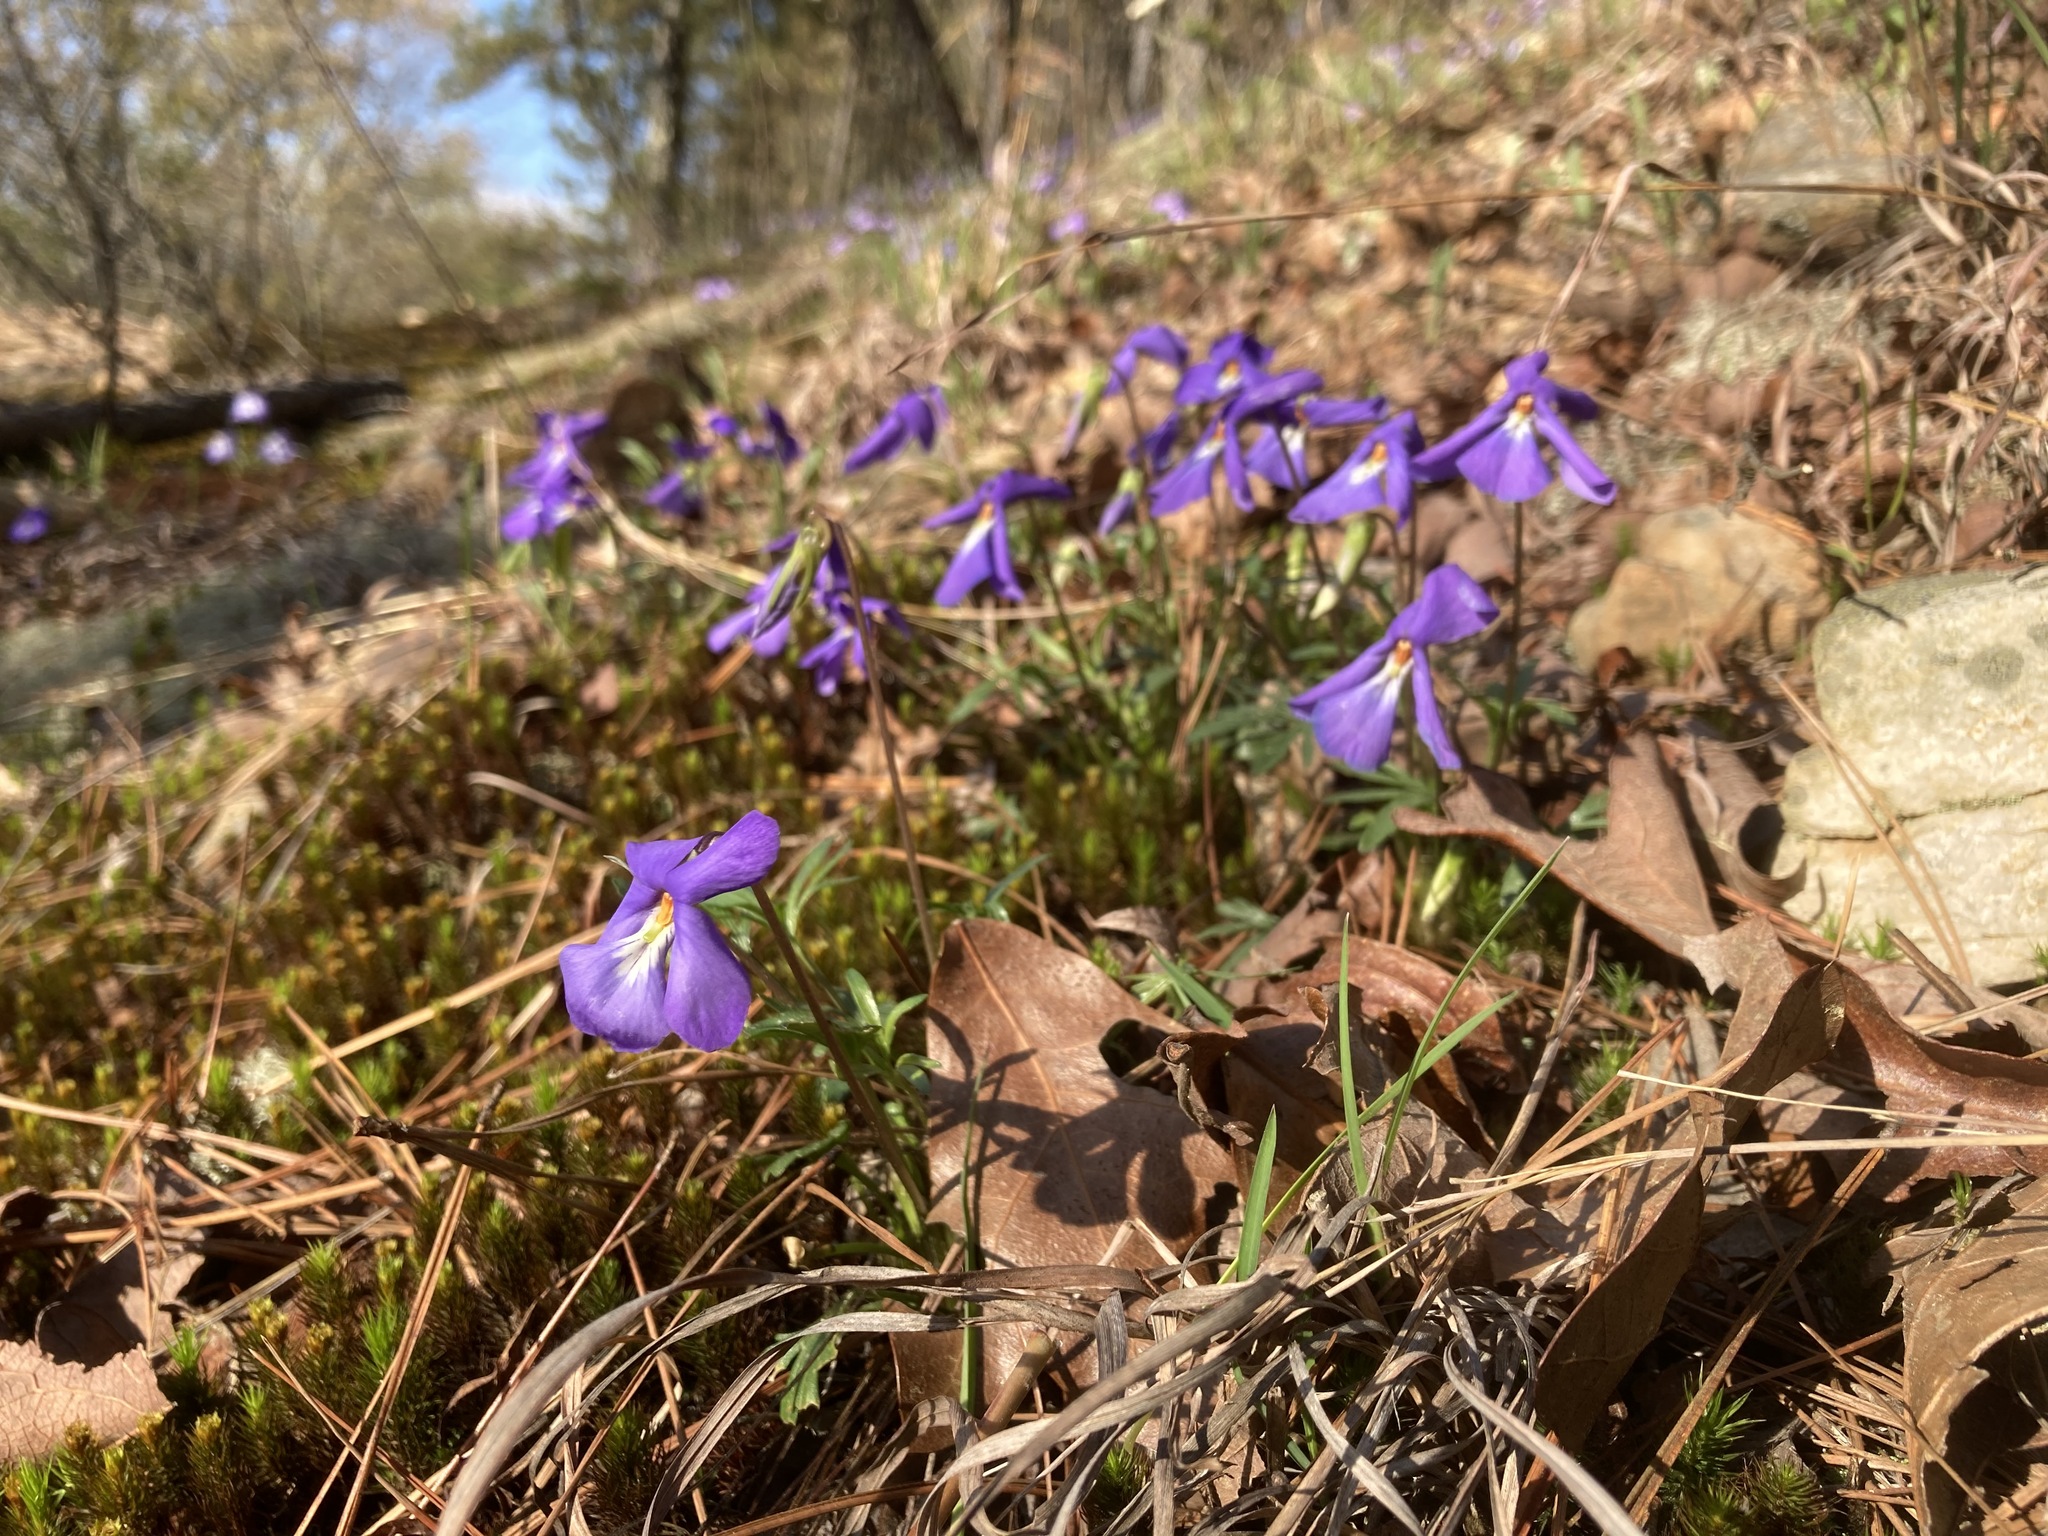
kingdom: Plantae
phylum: Tracheophyta
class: Magnoliopsida
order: Malpighiales
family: Violaceae
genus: Viola
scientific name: Viola pedata
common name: Pansy violet
